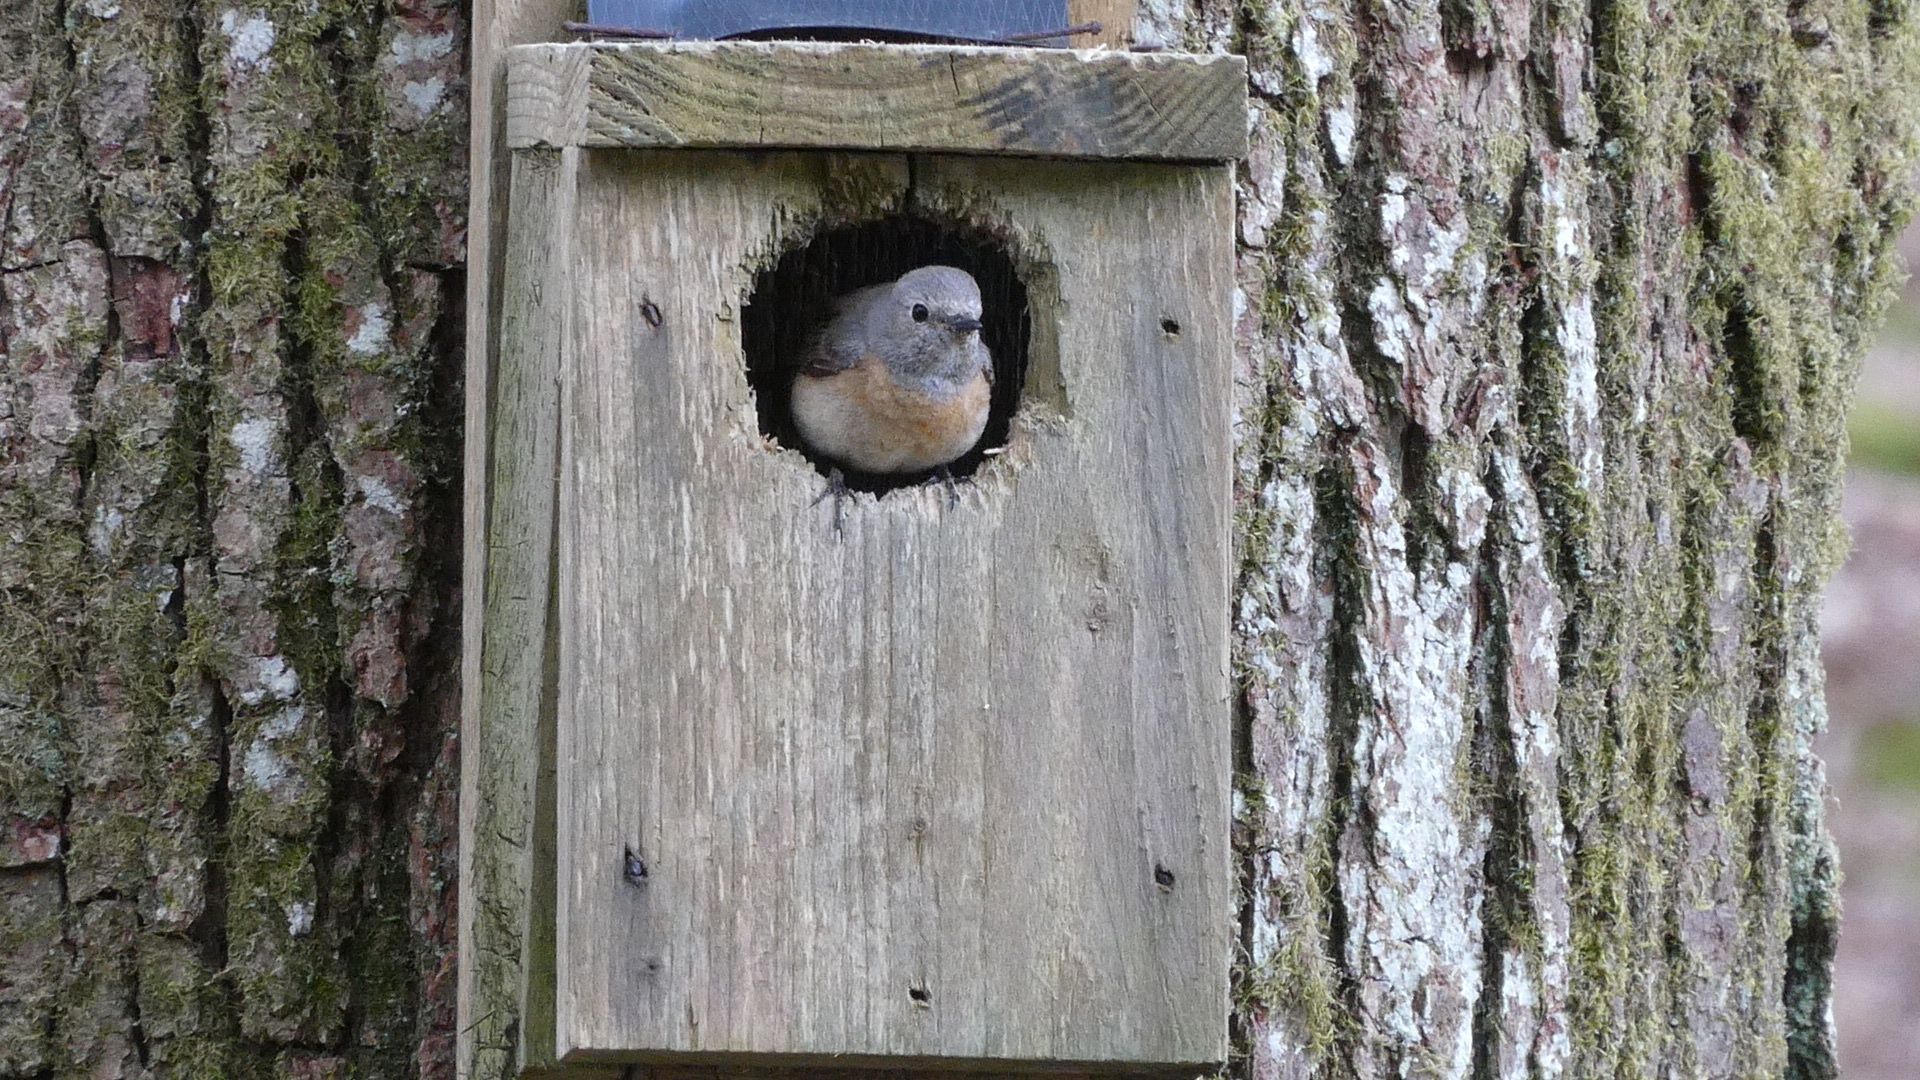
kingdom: Animalia
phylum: Chordata
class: Aves
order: Passeriformes
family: Muscicapidae
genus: Phoenicurus
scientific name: Phoenicurus phoenicurus
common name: Common redstart
